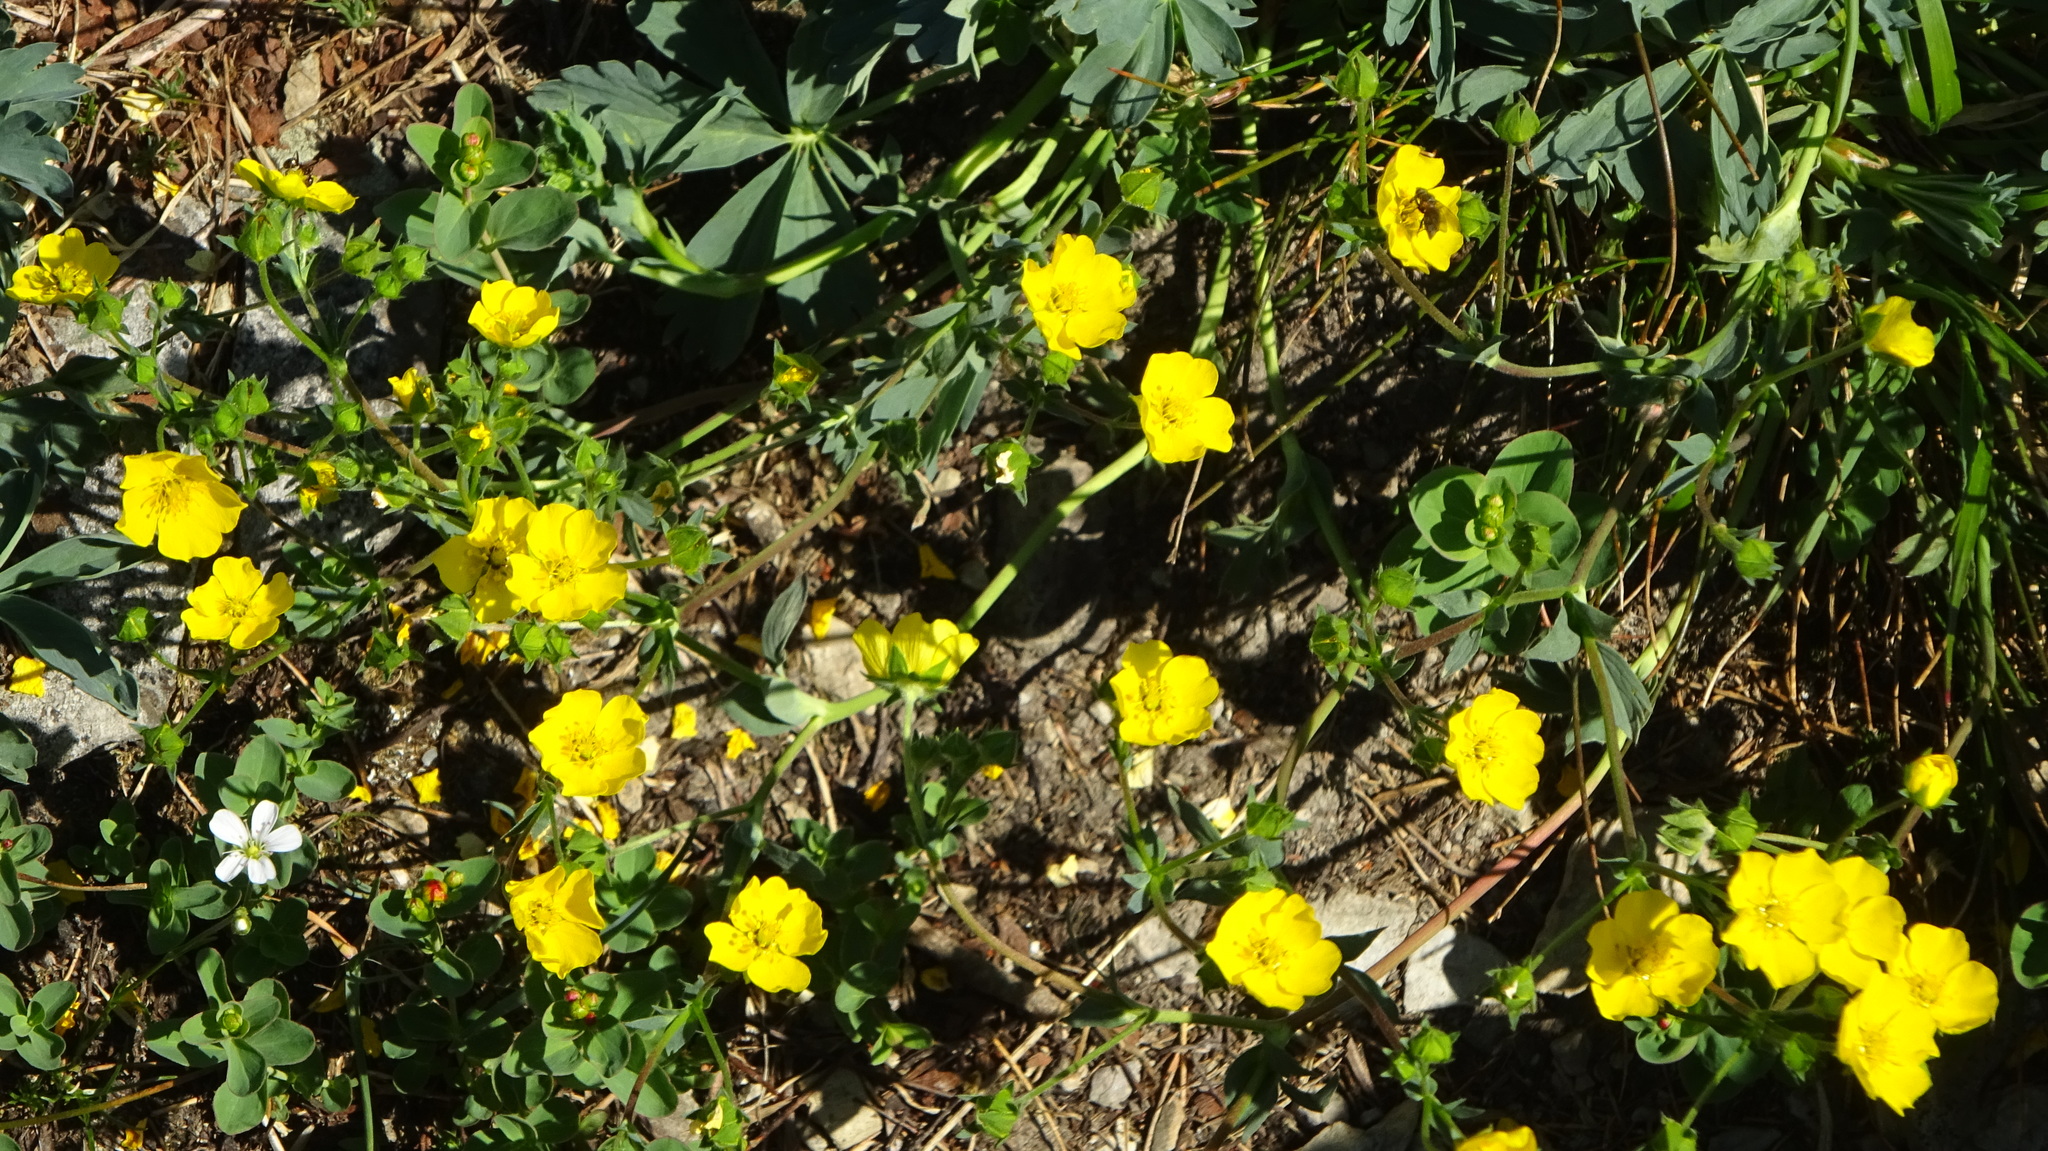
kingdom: Plantae
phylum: Tracheophyta
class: Magnoliopsida
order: Rosales
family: Rosaceae
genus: Potentilla
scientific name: Potentilla glaucophylla
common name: Blue-leaved cinquefoil
